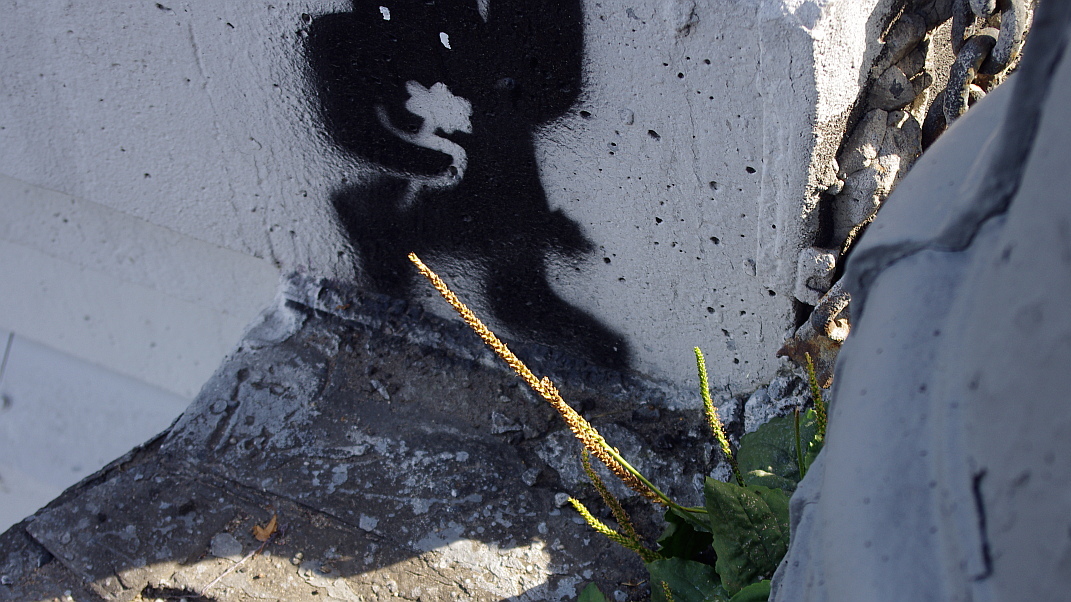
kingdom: Plantae
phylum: Tracheophyta
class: Magnoliopsida
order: Lamiales
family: Plantaginaceae
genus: Plantago
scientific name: Plantago major
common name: Common plantain
